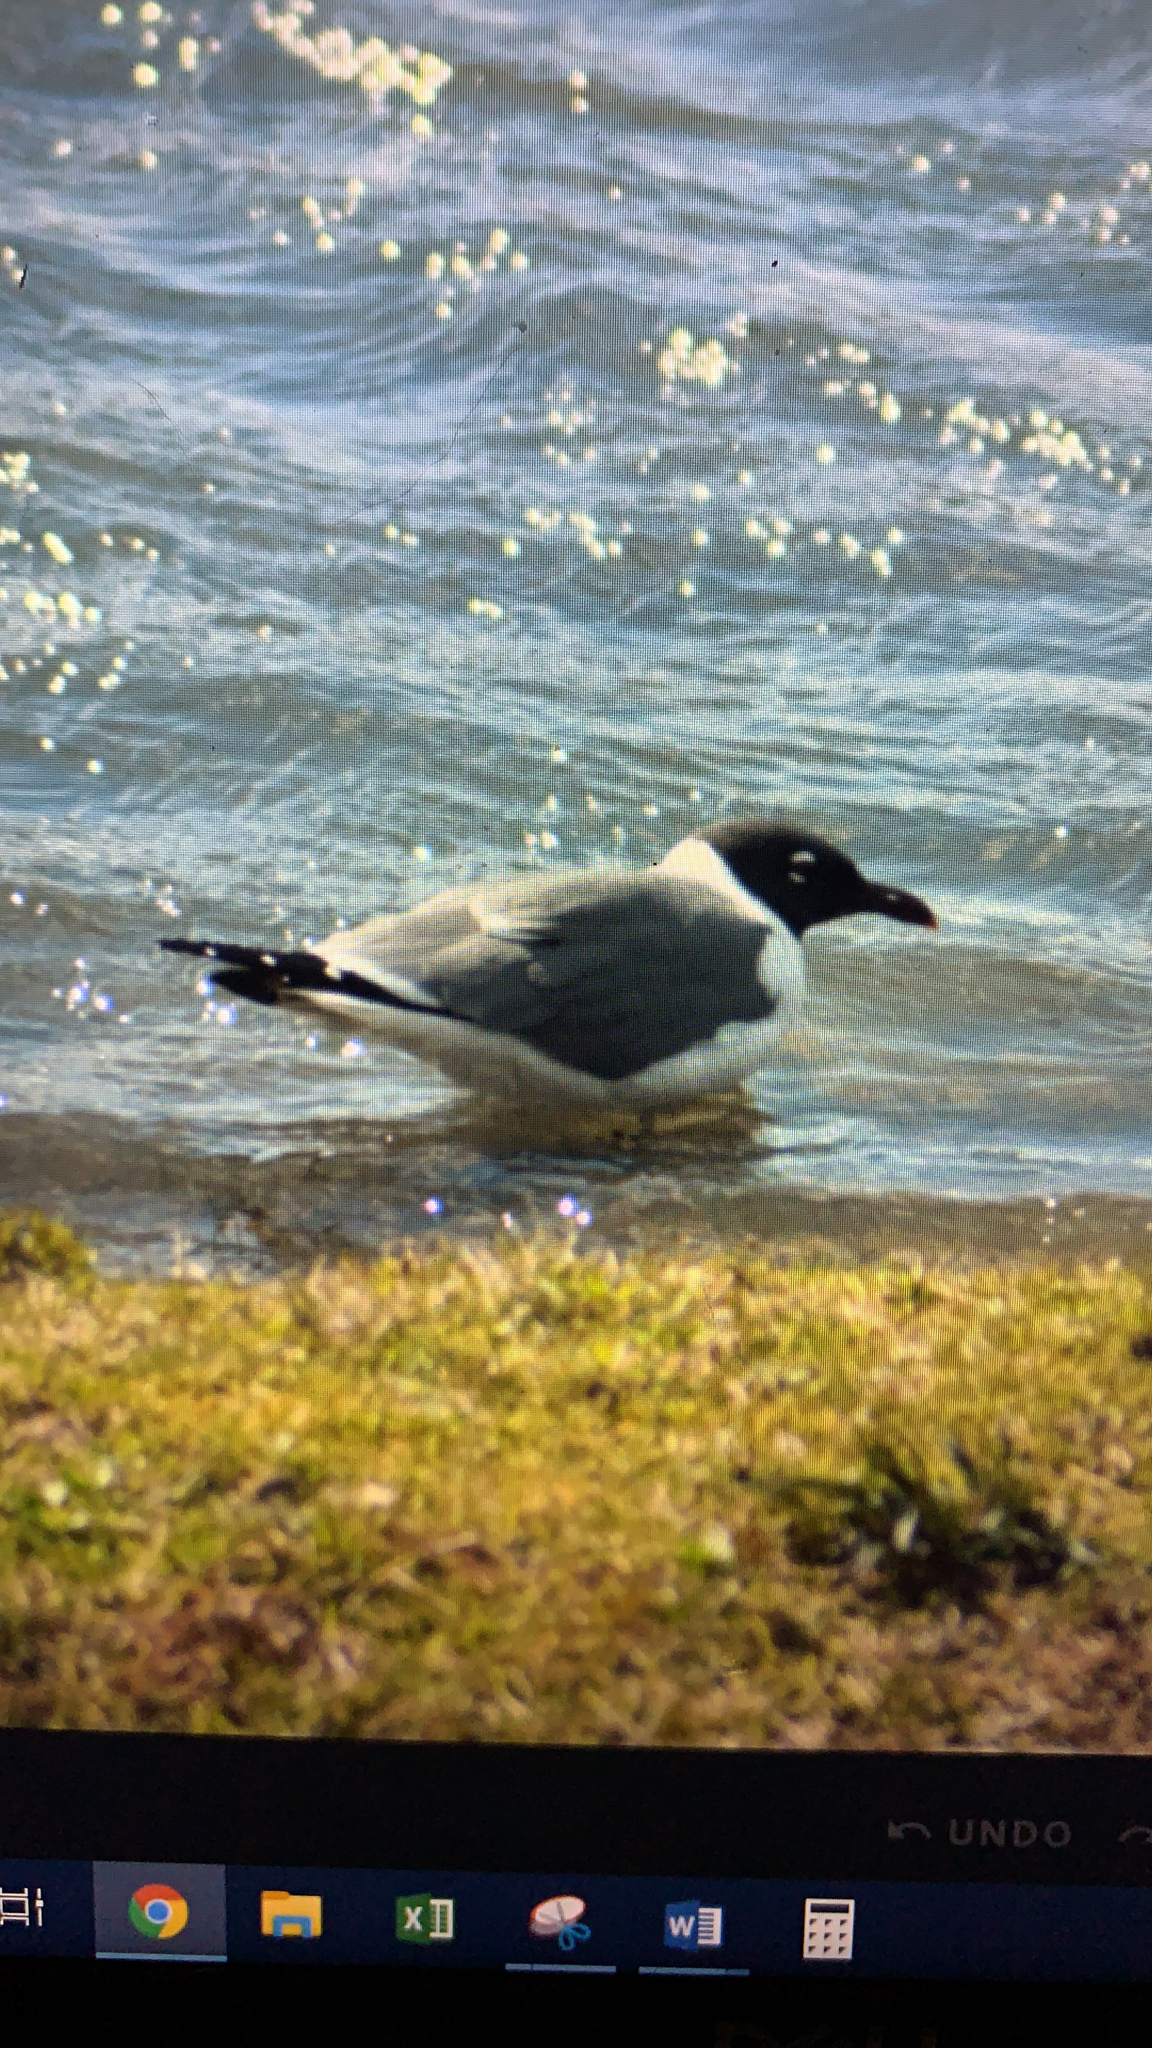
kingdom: Animalia
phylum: Chordata
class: Aves
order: Charadriiformes
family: Laridae
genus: Leucophaeus
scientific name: Leucophaeus atricilla
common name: Laughing gull
